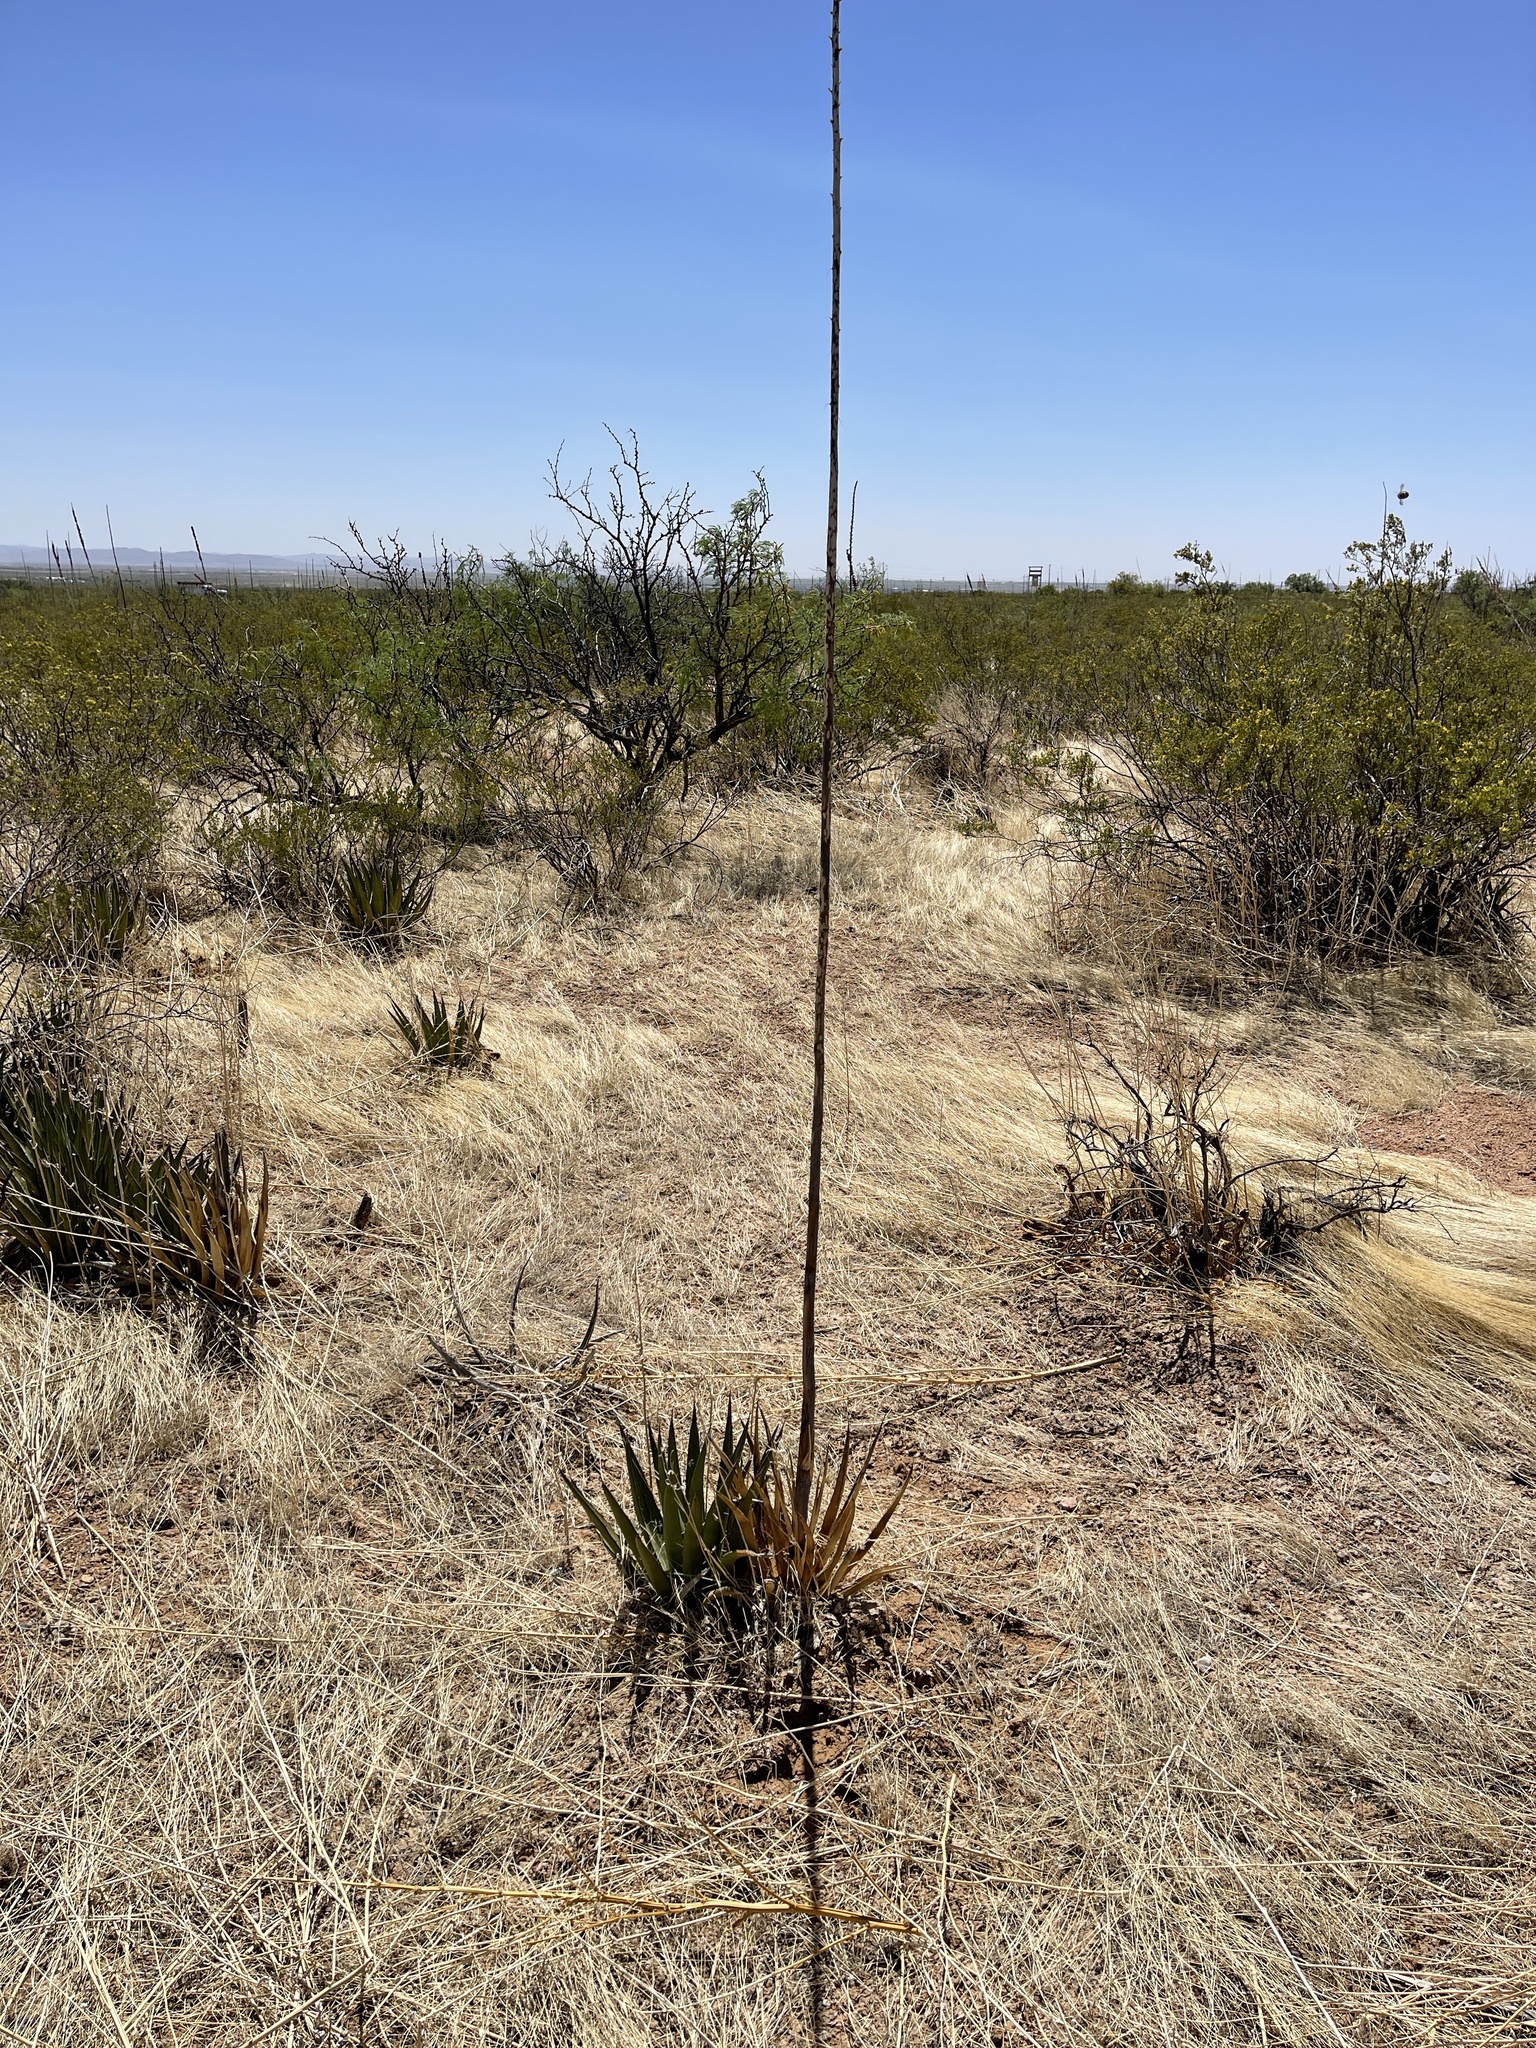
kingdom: Plantae
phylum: Tracheophyta
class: Liliopsida
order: Asparagales
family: Asparagaceae
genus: Agave
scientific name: Agave lechuguilla
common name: Lecheguilla agave
